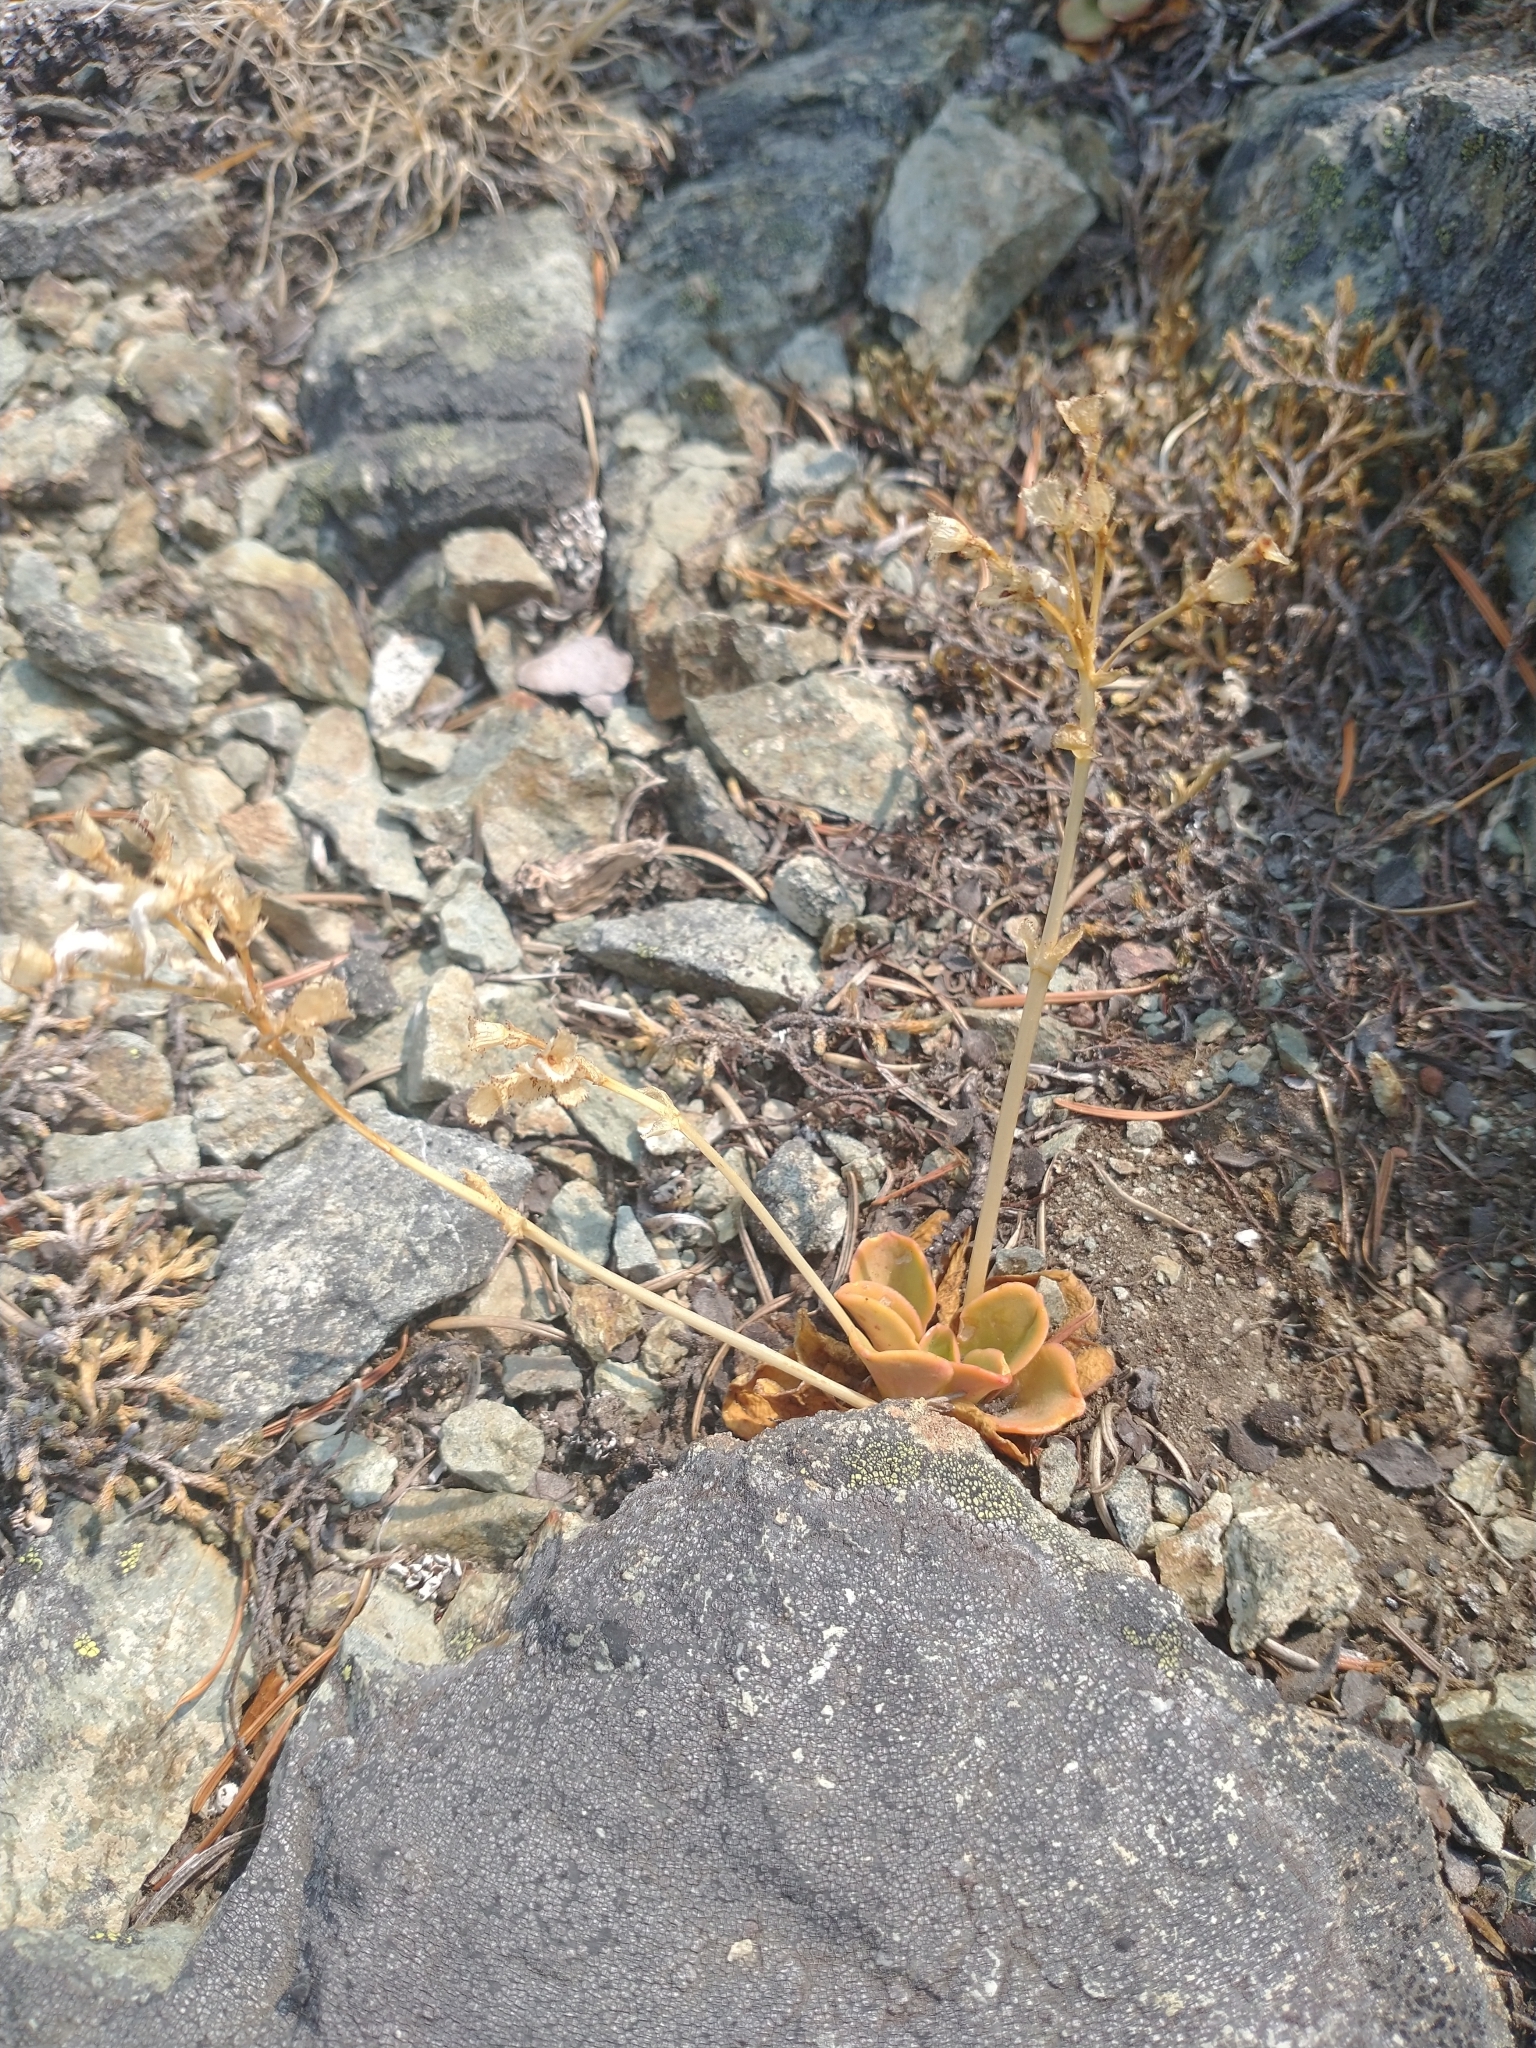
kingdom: Plantae
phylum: Tracheophyta
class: Magnoliopsida
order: Caryophyllales
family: Montiaceae
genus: Lewisia
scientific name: Lewisia cotyledon
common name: Siskiyou lewisia
